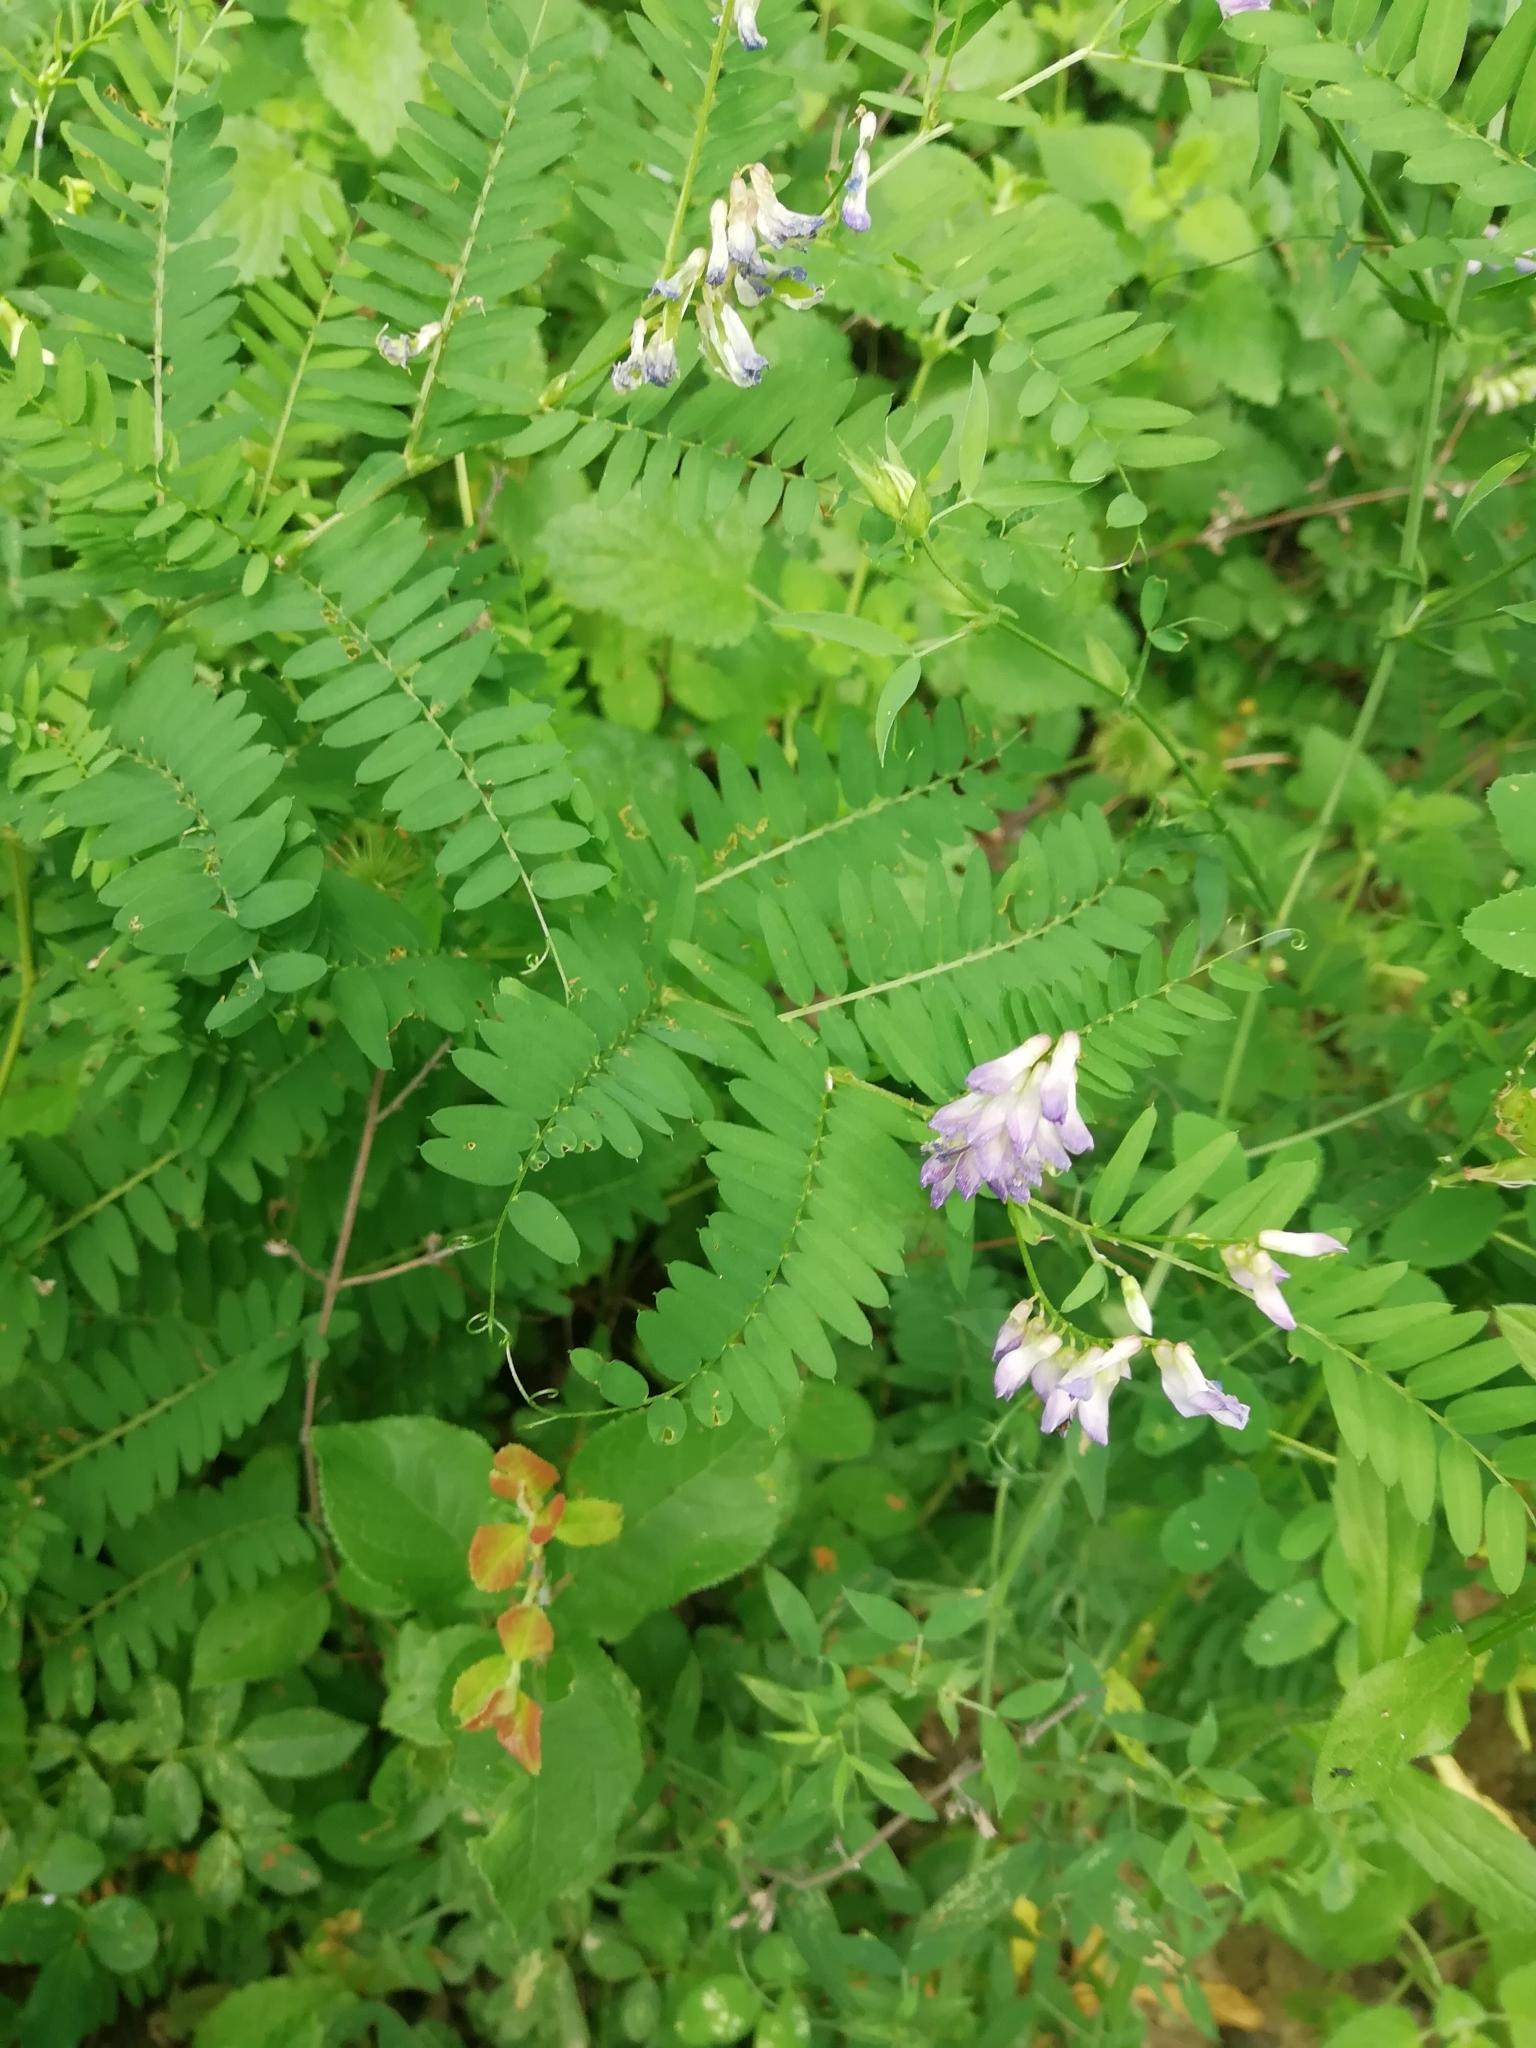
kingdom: Plantae
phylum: Tracheophyta
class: Magnoliopsida
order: Fabales
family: Fabaceae
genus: Vicia
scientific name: Vicia cassubica
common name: Danzig vetch
